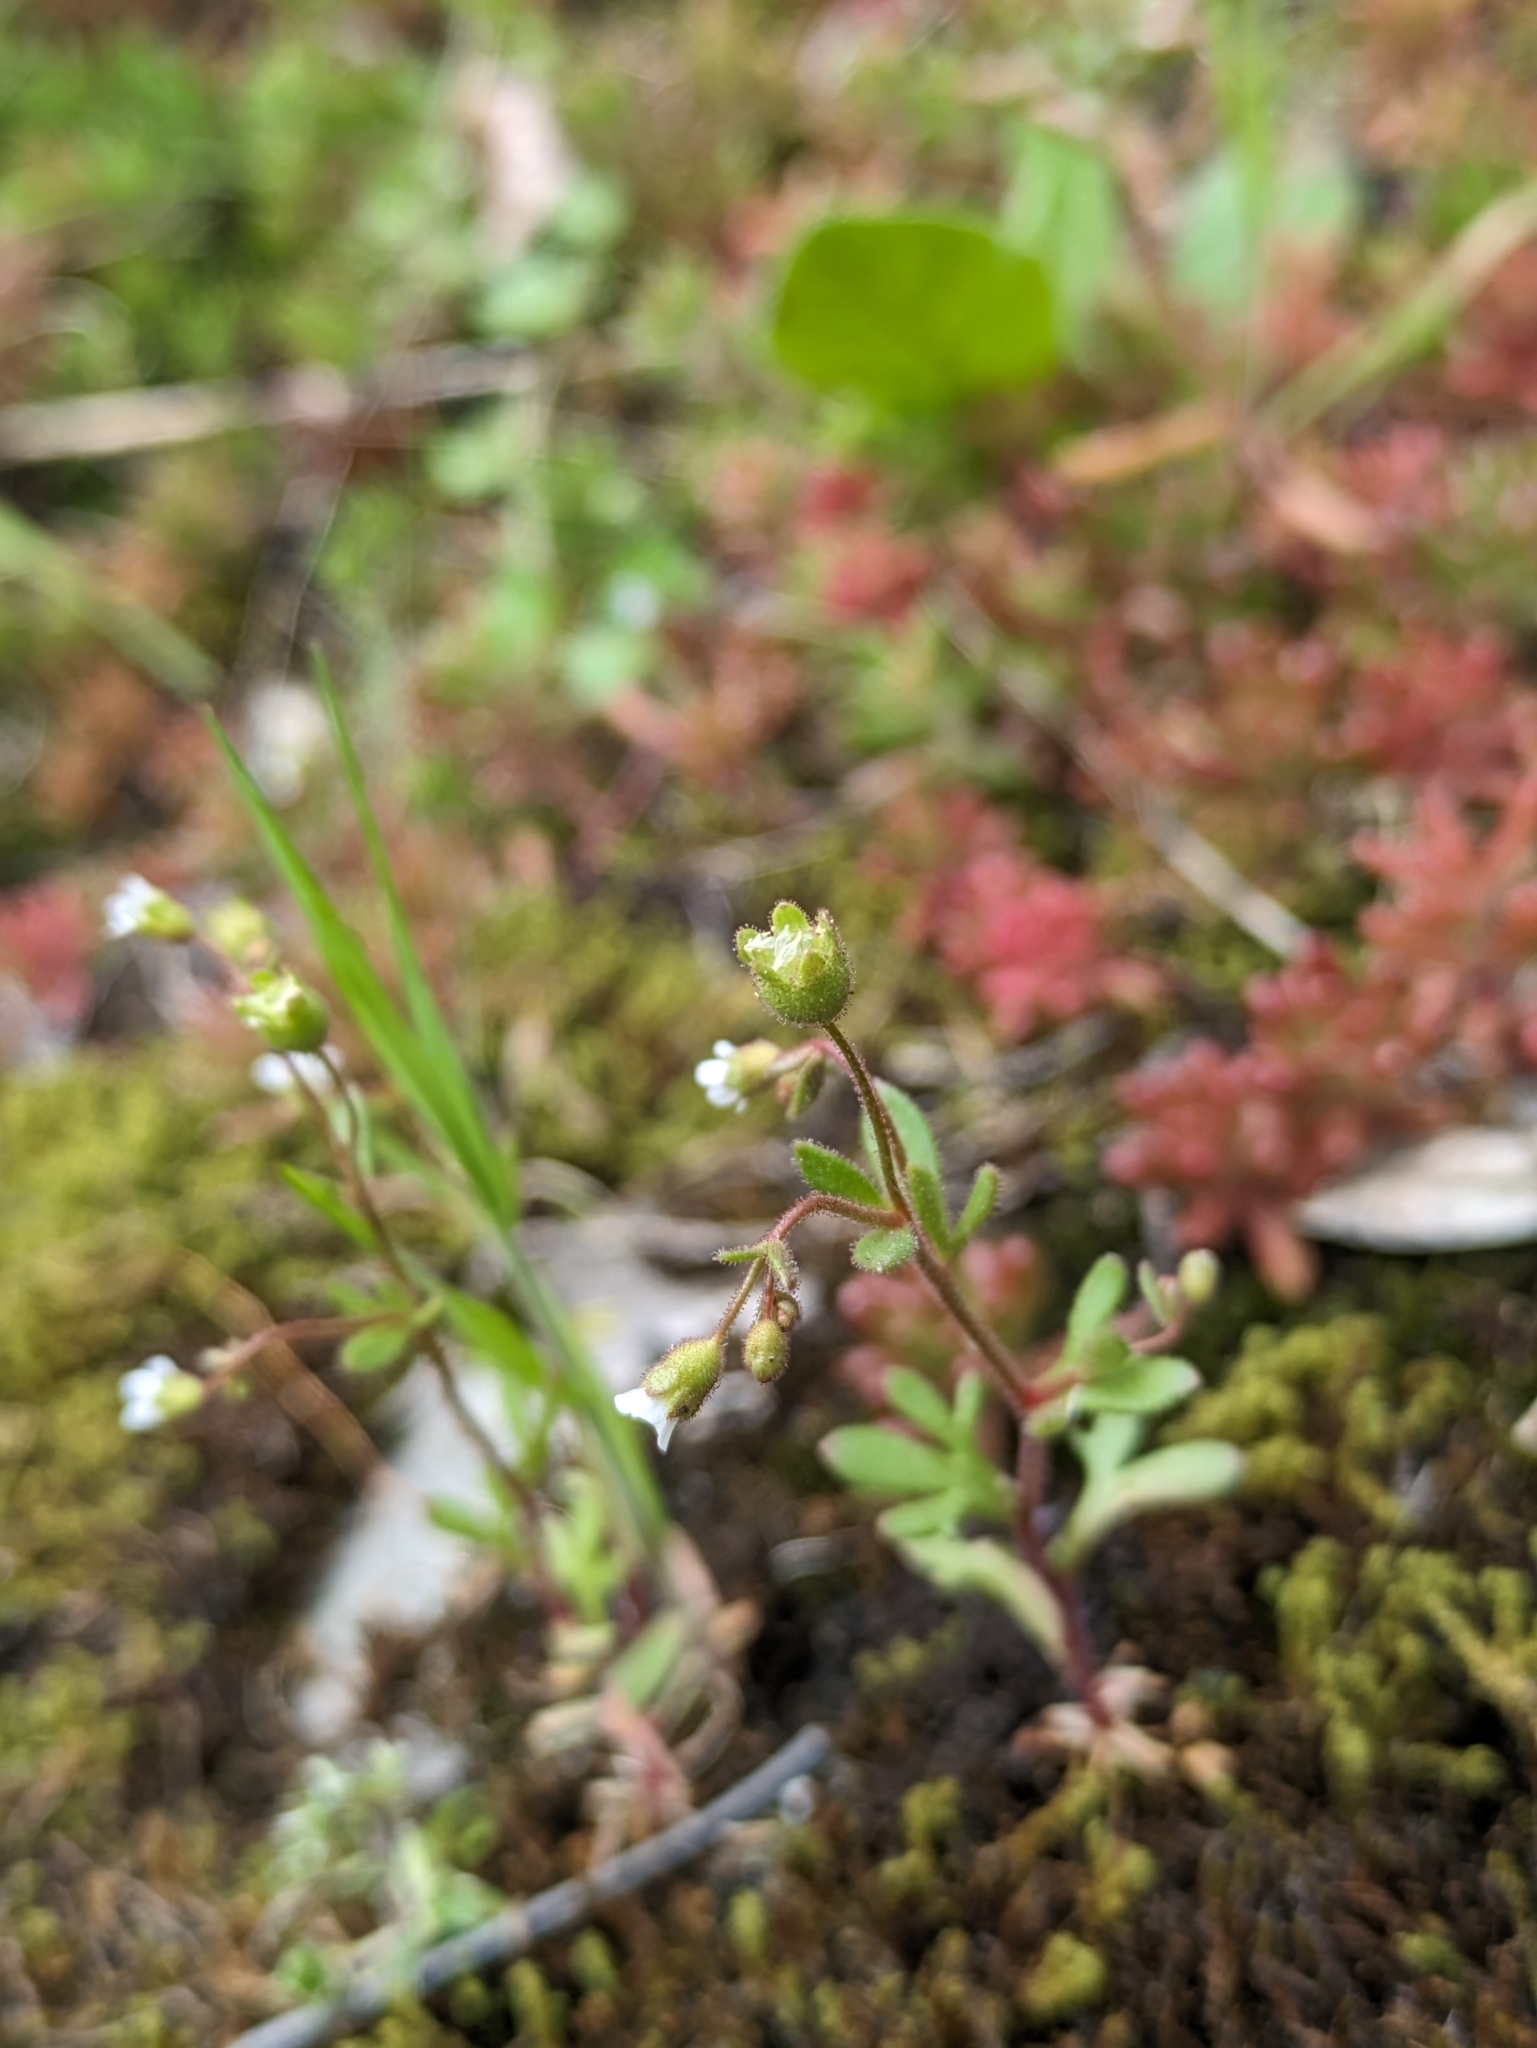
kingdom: Plantae
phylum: Tracheophyta
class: Magnoliopsida
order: Saxifragales
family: Saxifragaceae
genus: Saxifraga
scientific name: Saxifraga tridactylites
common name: Rue-leaved saxifrage
